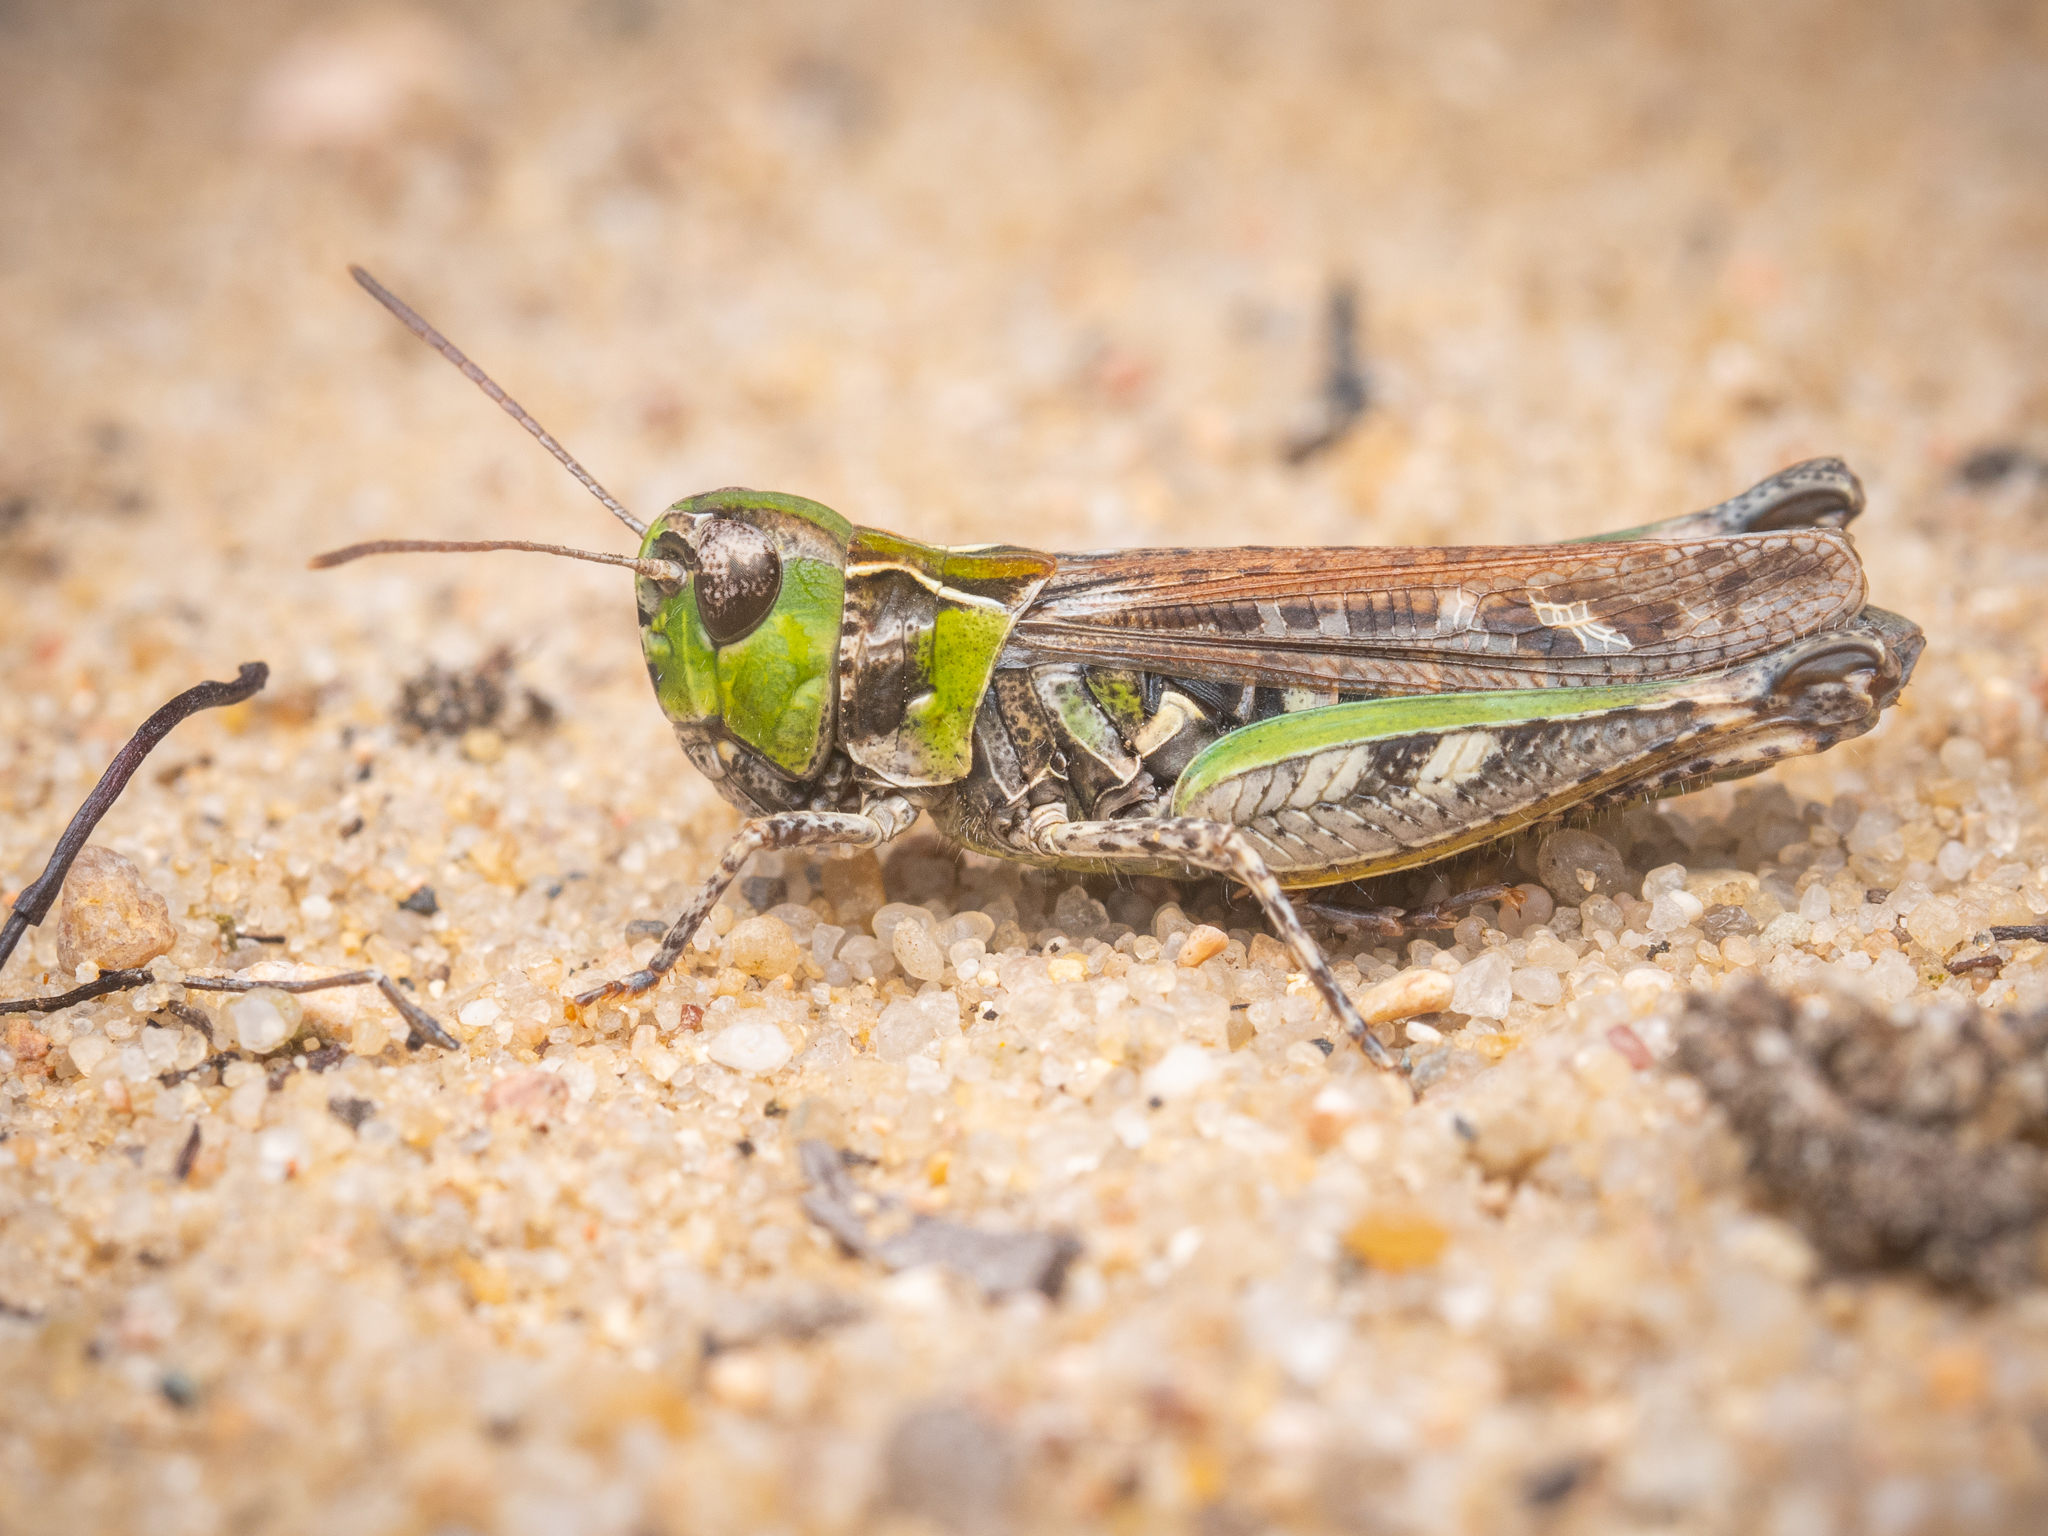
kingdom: Animalia
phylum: Arthropoda
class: Insecta
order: Orthoptera
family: Acrididae
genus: Myrmeleotettix
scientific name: Myrmeleotettix maculatus
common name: Mottled grasshopper
